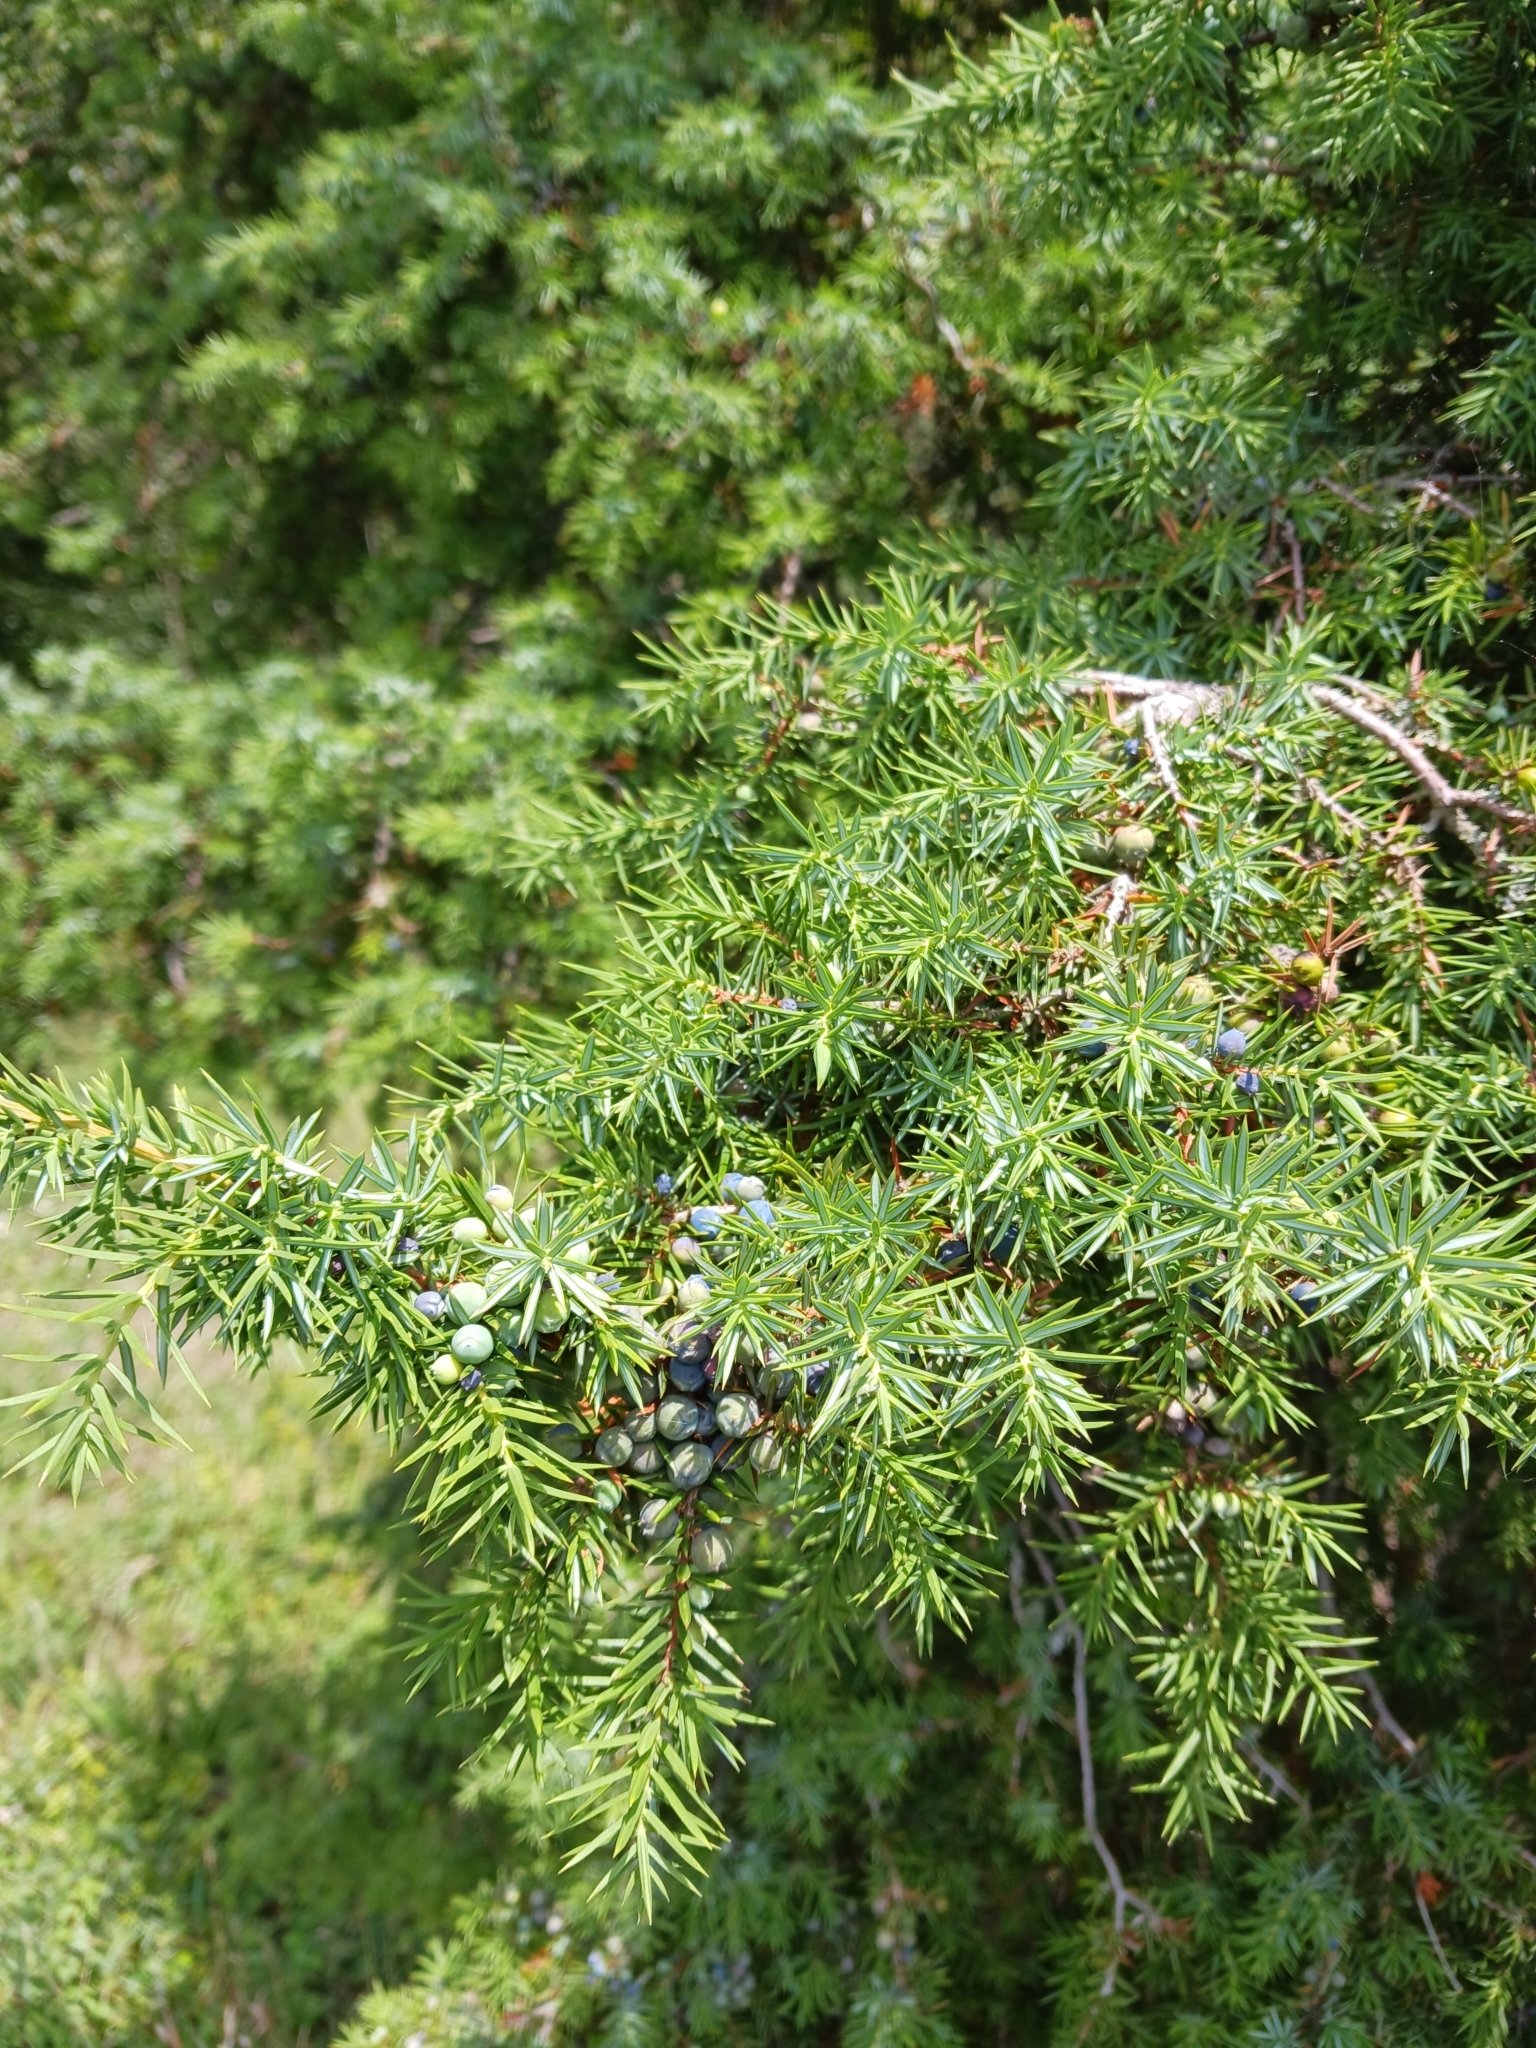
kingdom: Plantae
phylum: Tracheophyta
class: Pinopsida
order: Pinales
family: Cupressaceae
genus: Juniperus
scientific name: Juniperus communis
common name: Common juniper
